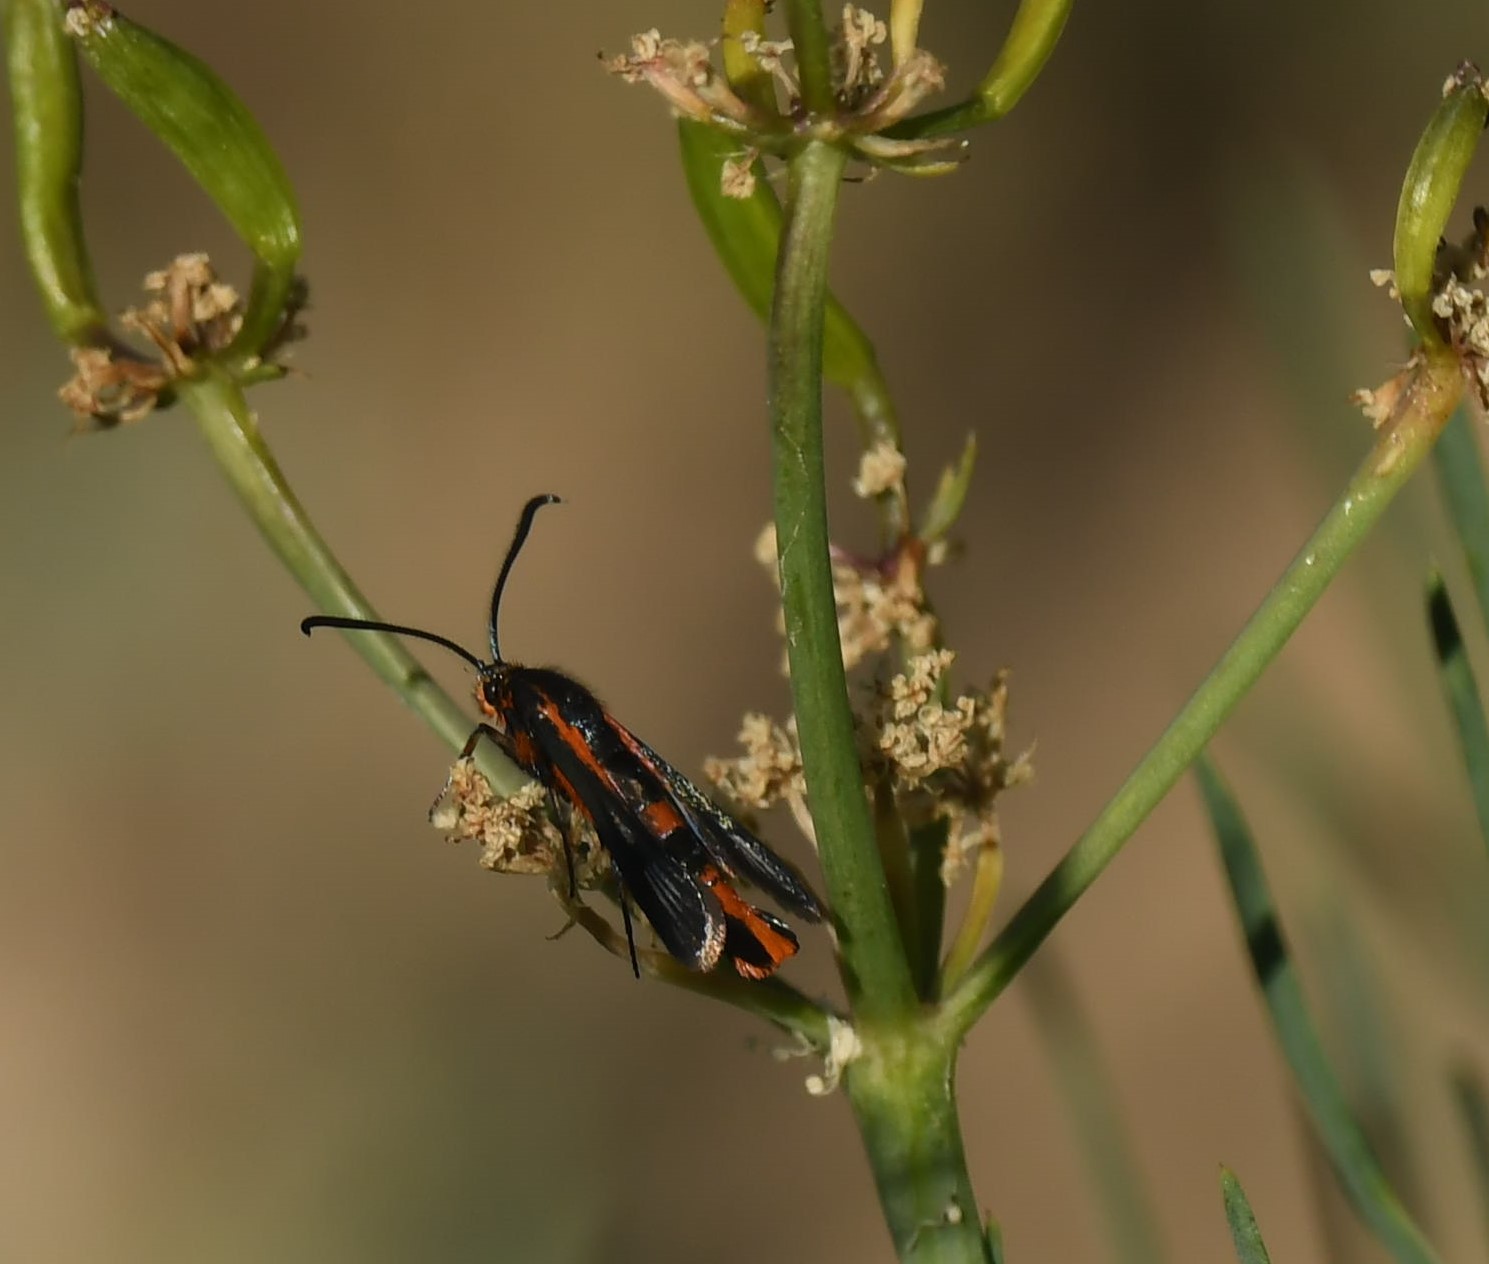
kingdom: Animalia
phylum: Arthropoda
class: Insecta
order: Lepidoptera
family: Sesiidae
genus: Synanthedon
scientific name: Synanthedon polygoni
